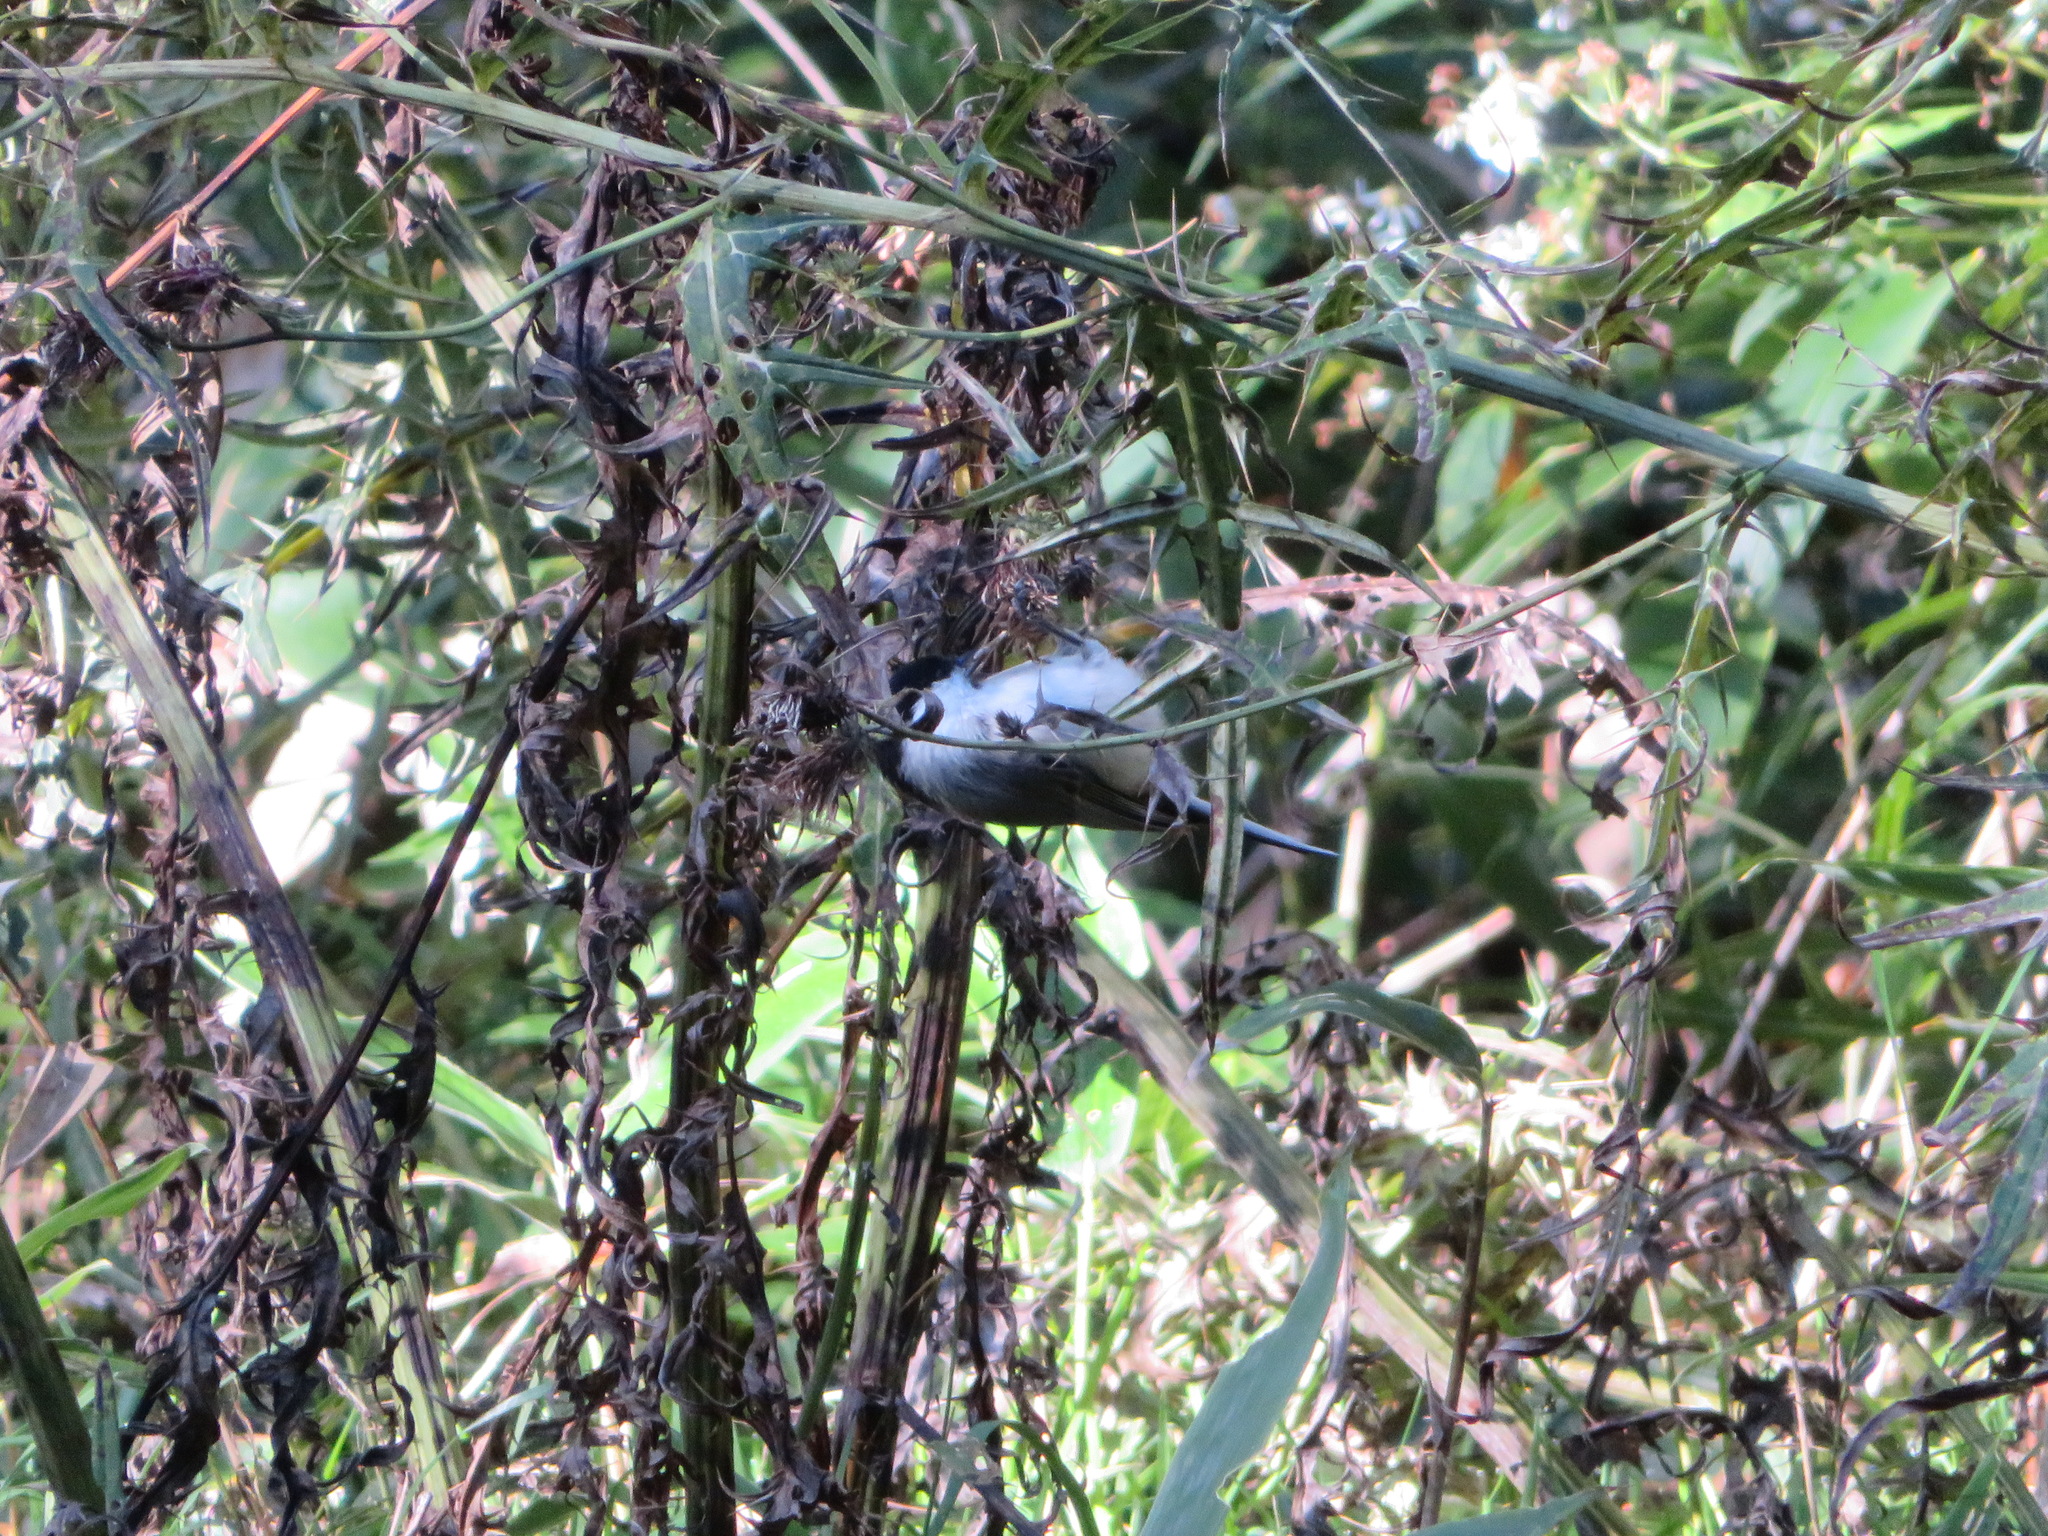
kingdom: Animalia
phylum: Chordata
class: Aves
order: Passeriformes
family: Paridae
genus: Poecile
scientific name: Poecile montanus
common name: Willow tit
